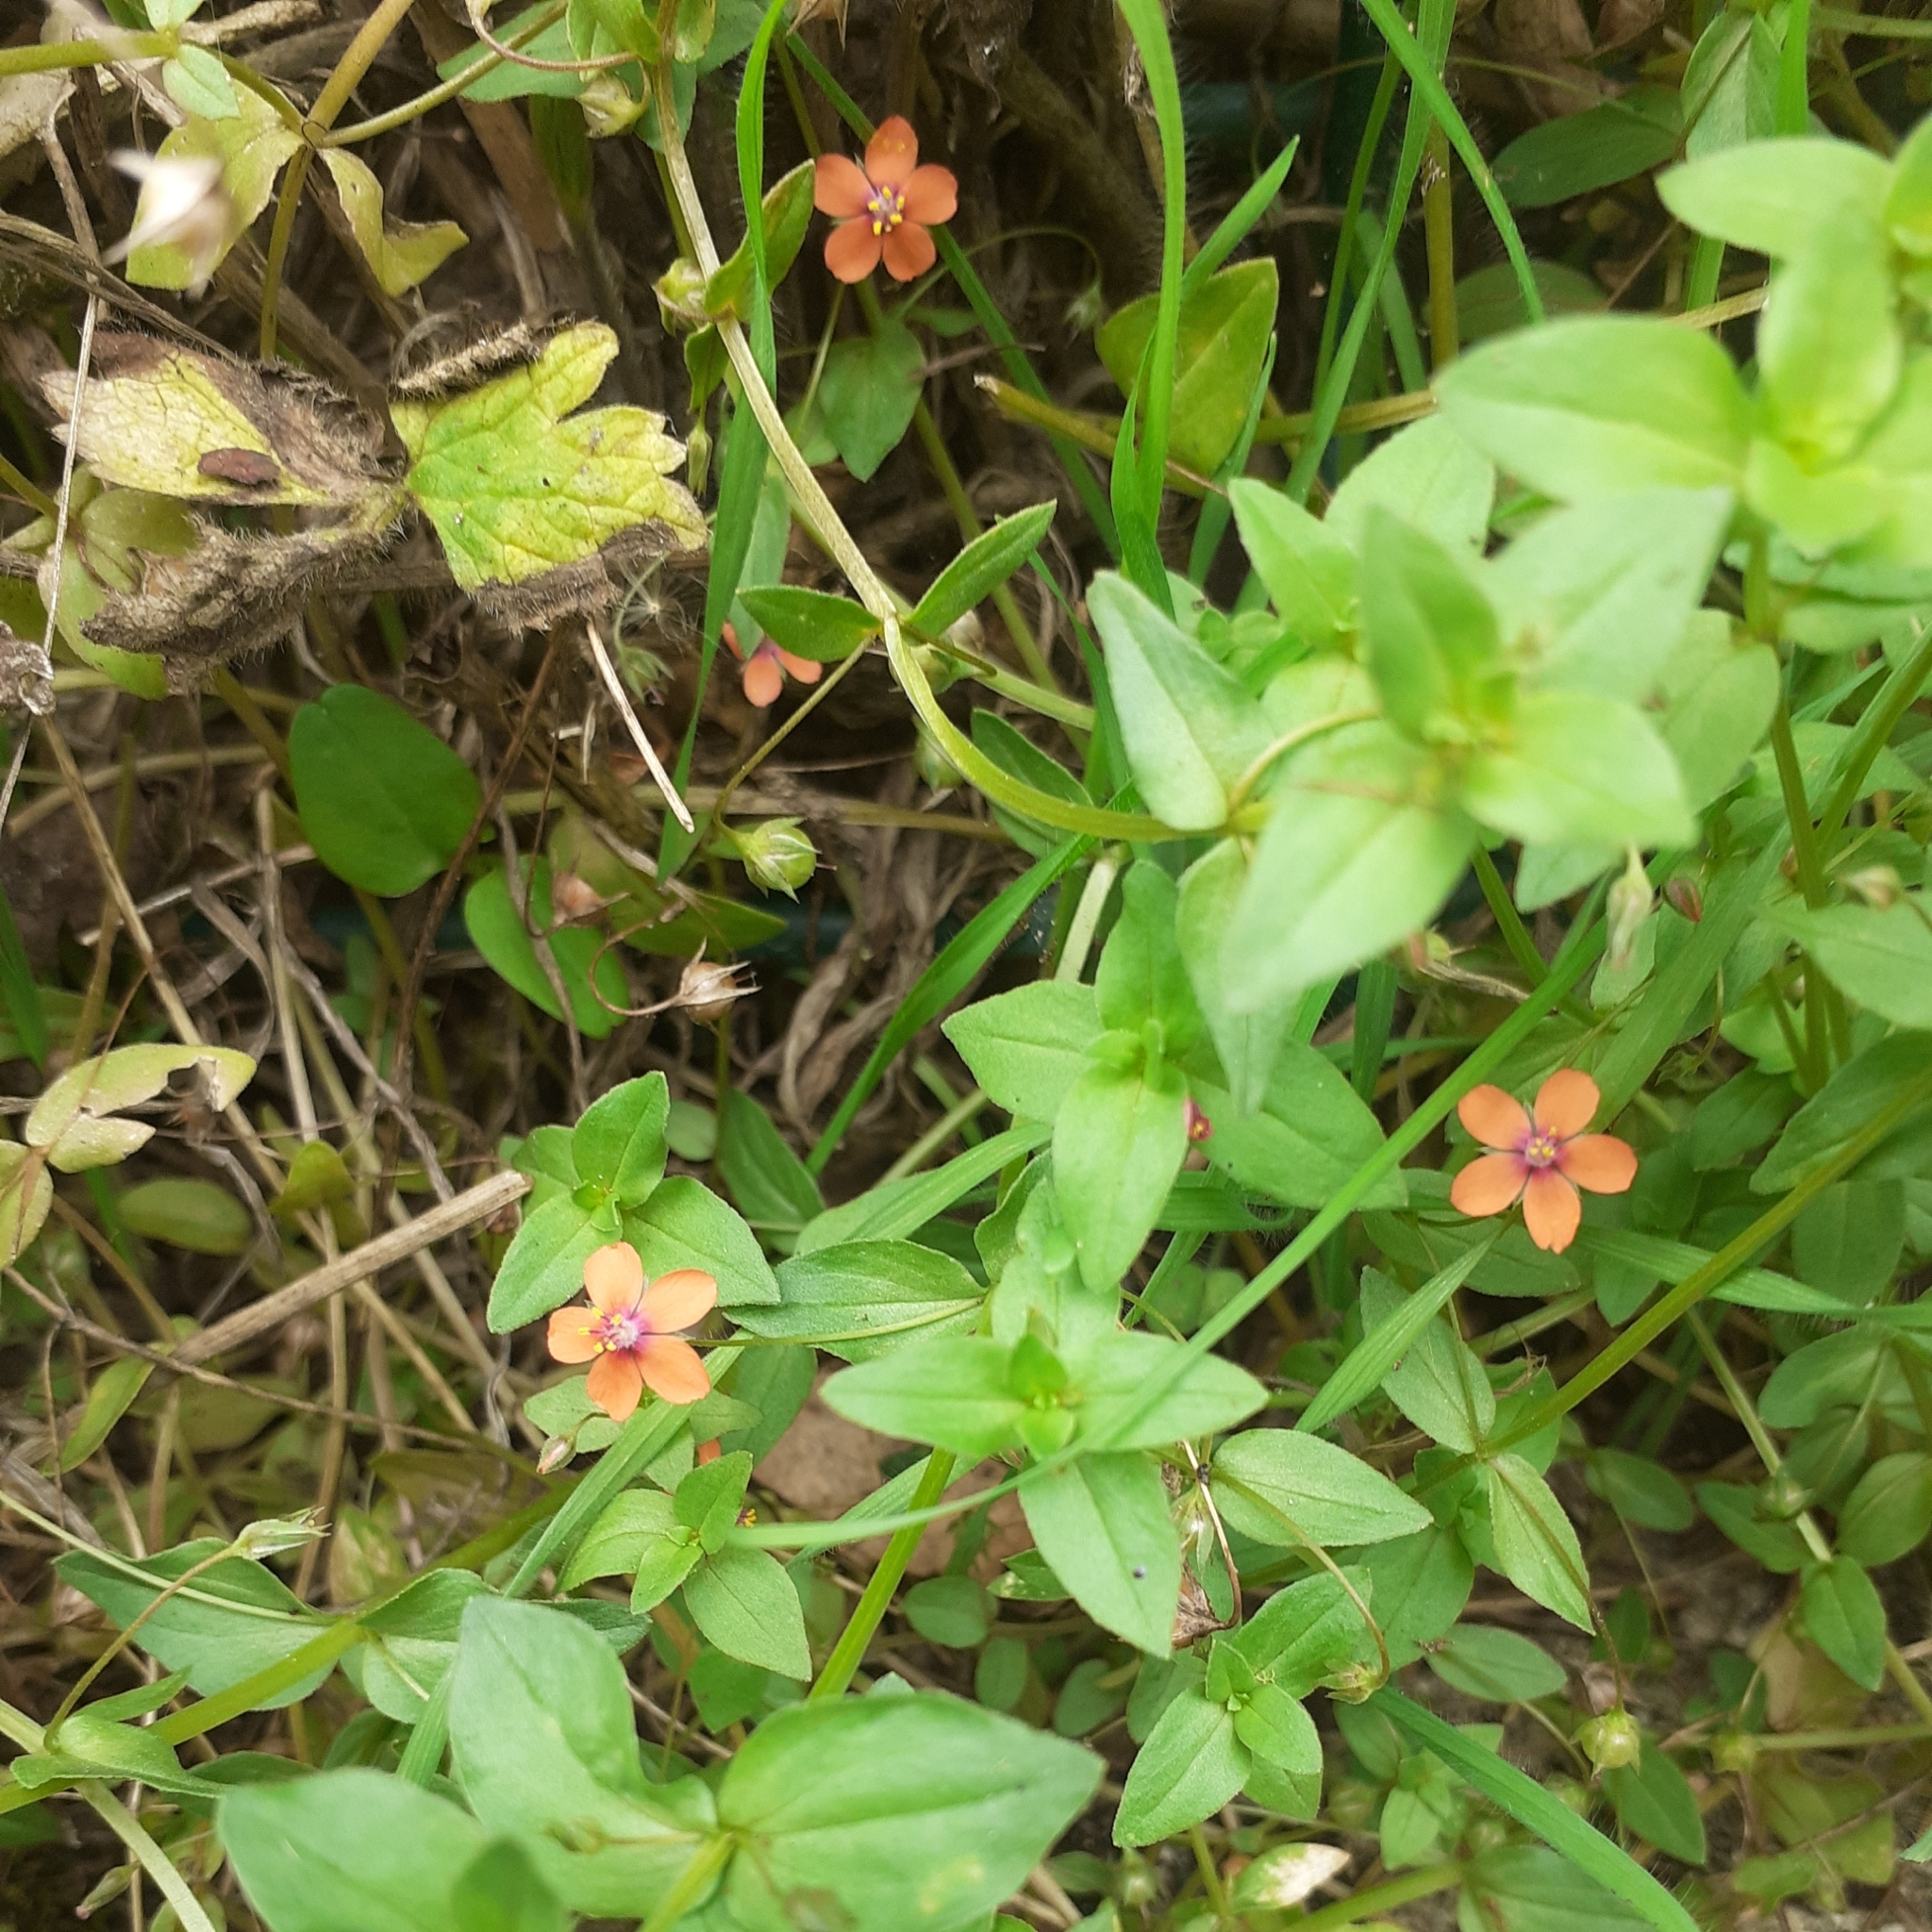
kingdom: Plantae
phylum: Tracheophyta
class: Magnoliopsida
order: Ericales
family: Primulaceae
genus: Lysimachia
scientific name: Lysimachia arvensis
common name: Scarlet pimpernel
